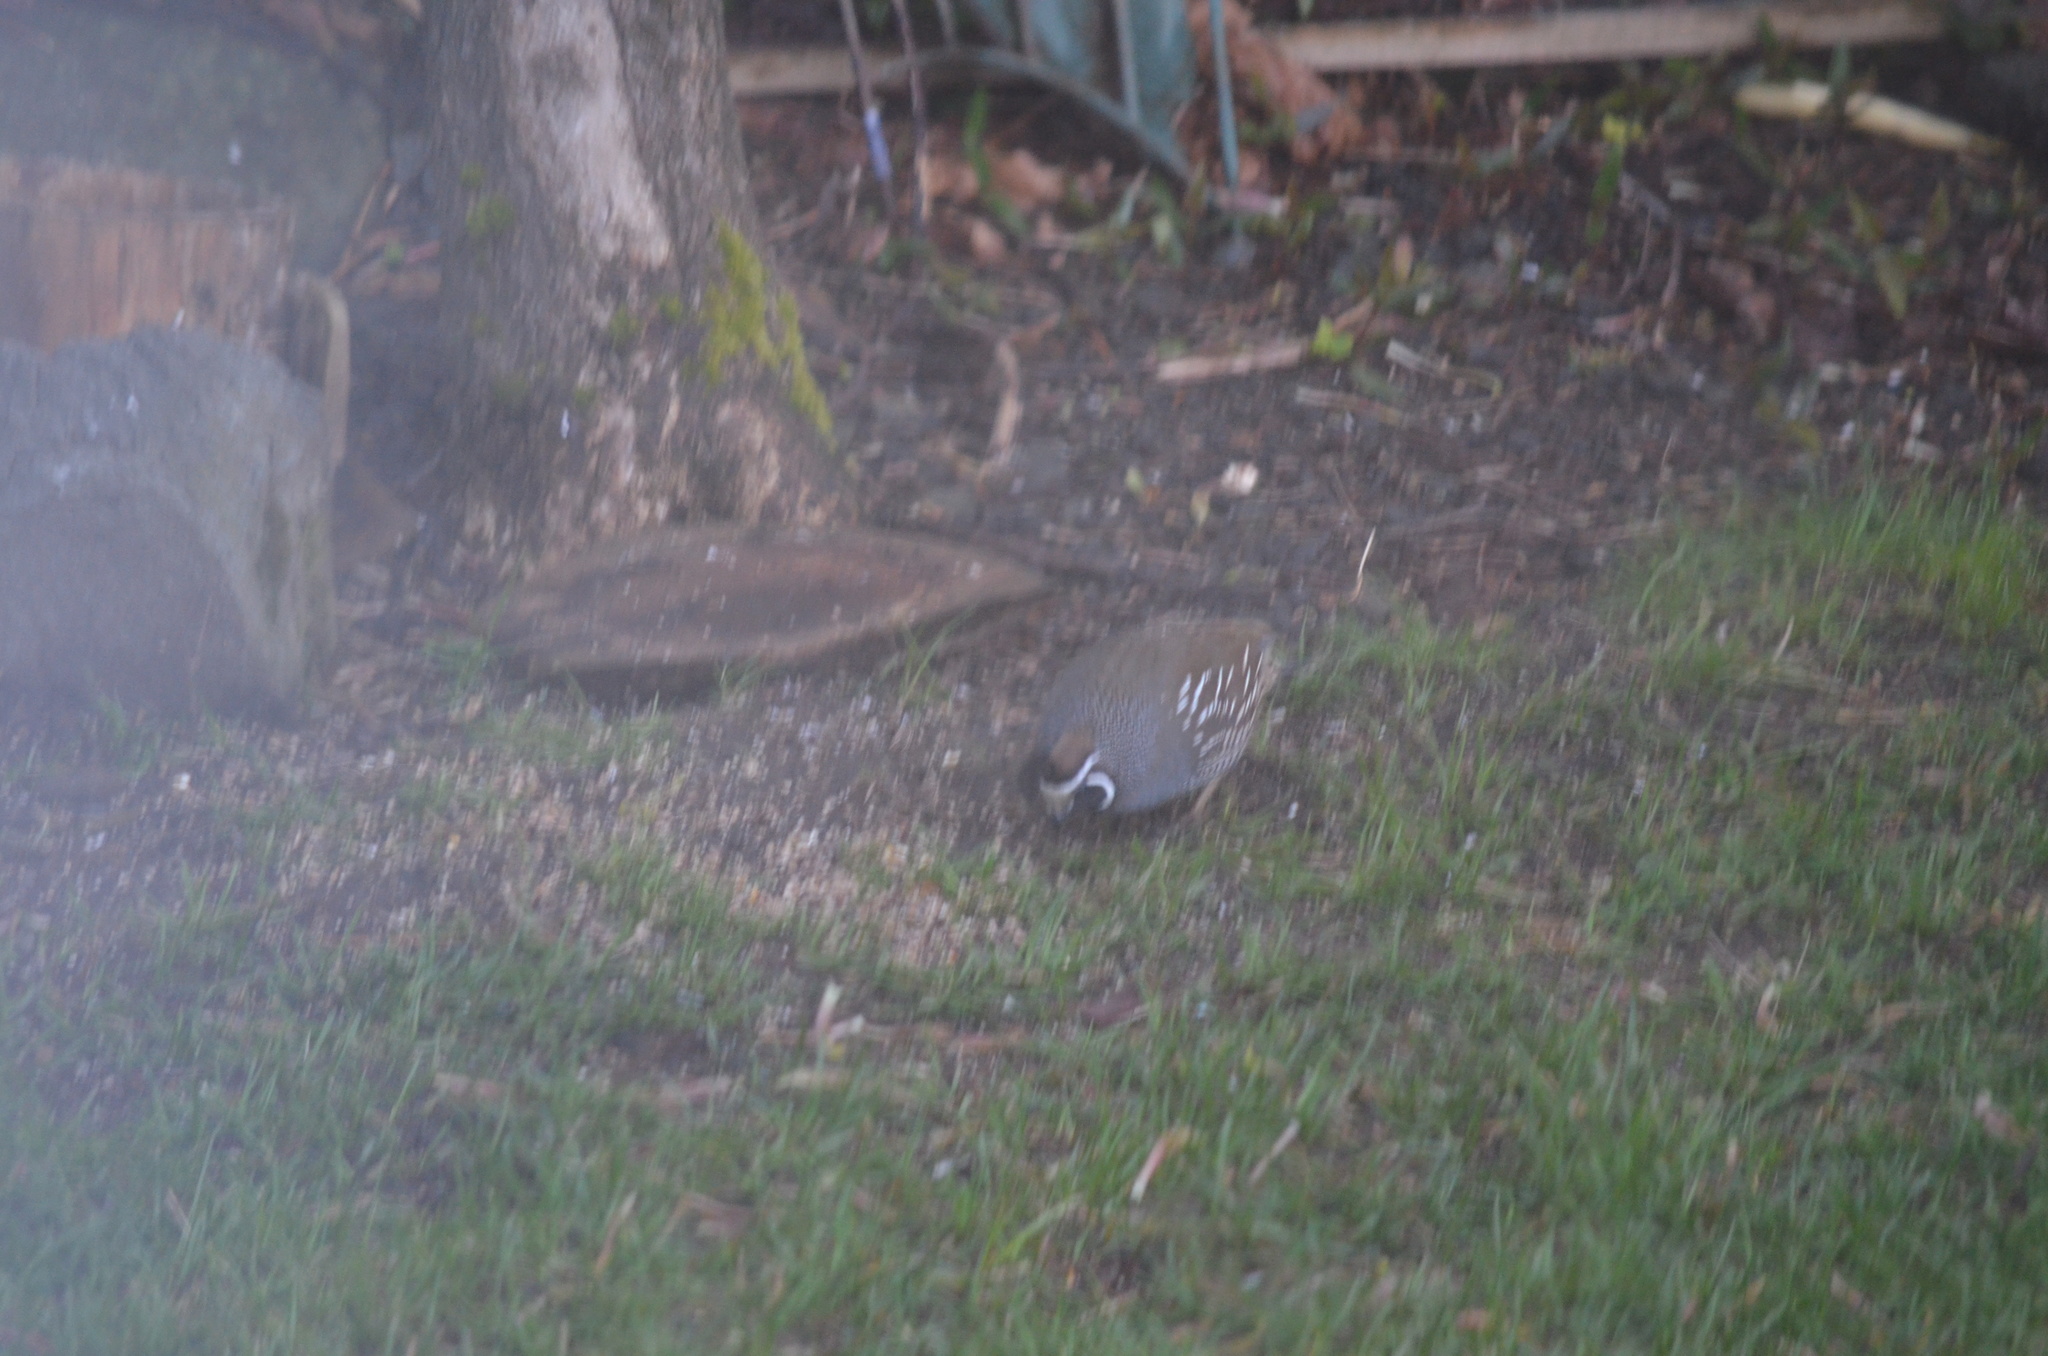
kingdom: Animalia
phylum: Chordata
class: Aves
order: Galliformes
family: Odontophoridae
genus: Callipepla
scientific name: Callipepla californica
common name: California quail
